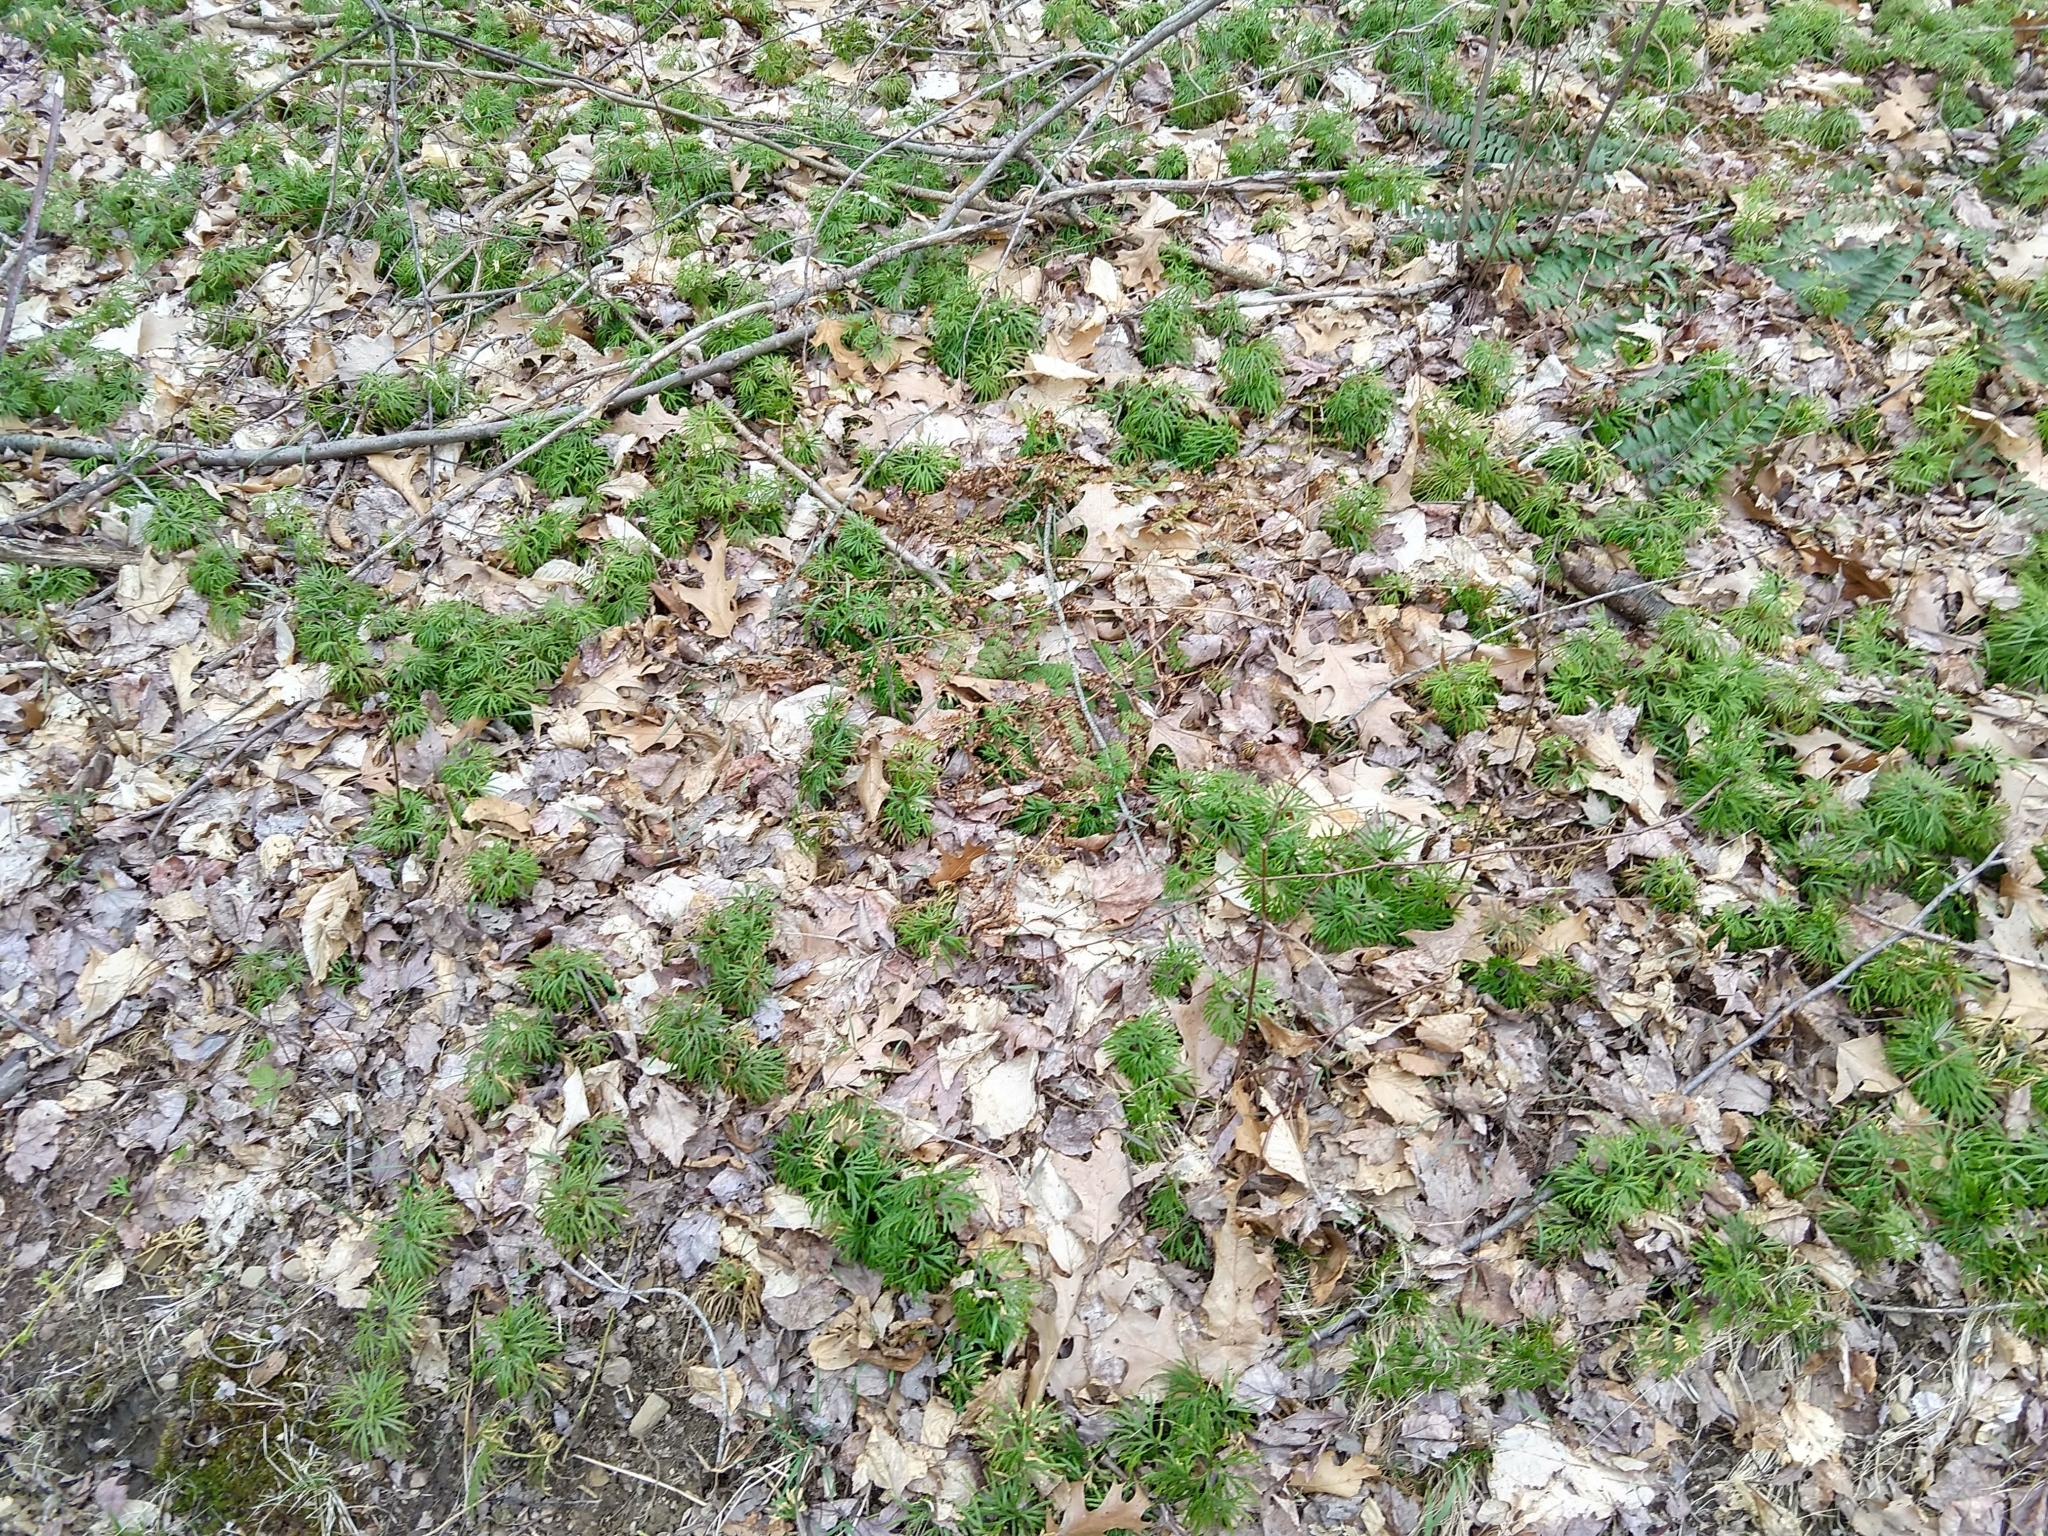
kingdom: Plantae
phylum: Tracheophyta
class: Lycopodiopsida
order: Lycopodiales
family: Lycopodiaceae
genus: Diphasiastrum
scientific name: Diphasiastrum digitatum
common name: Southern running-pine
